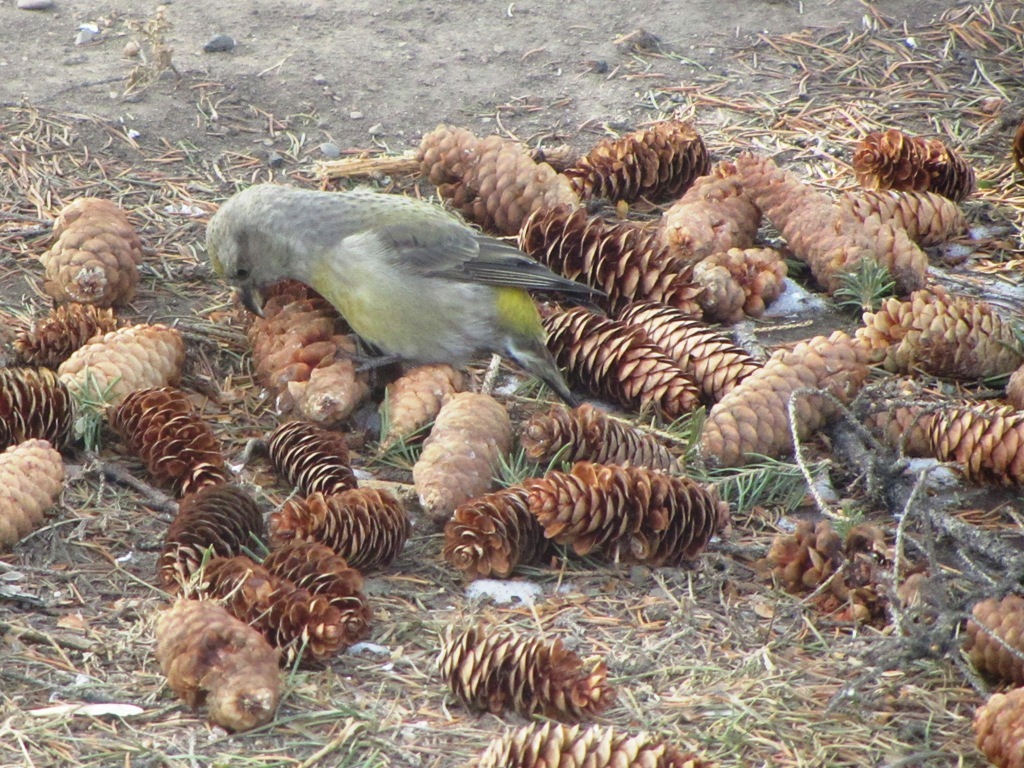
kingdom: Animalia
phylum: Chordata
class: Aves
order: Passeriformes
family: Fringillidae
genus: Loxia
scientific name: Loxia curvirostra
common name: Red crossbill
